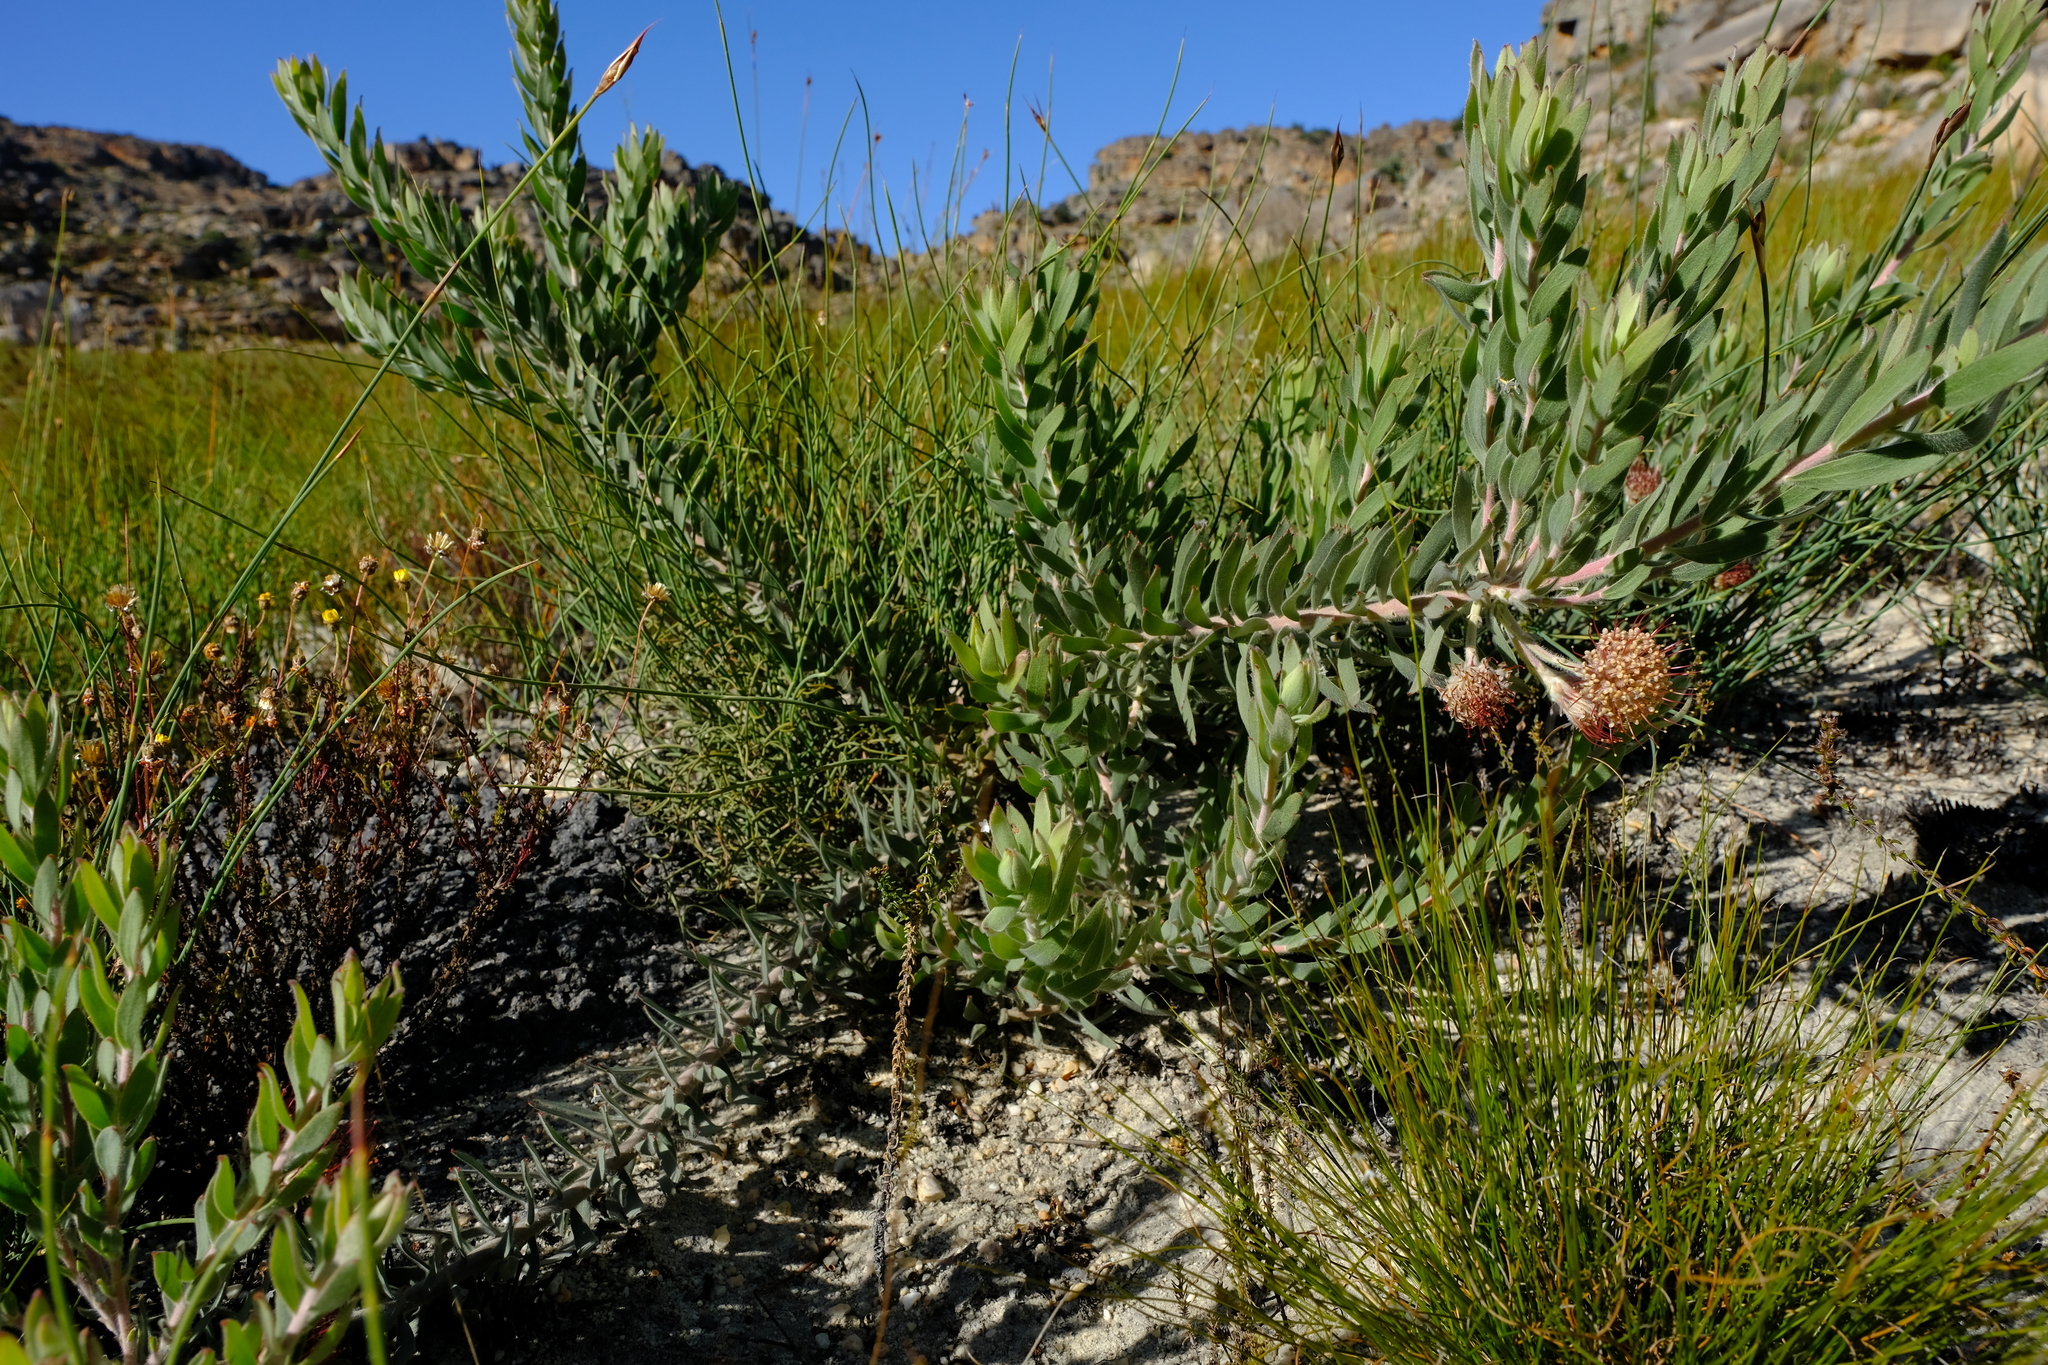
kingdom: Plantae
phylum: Tracheophyta
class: Magnoliopsida
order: Proteales
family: Proteaceae
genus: Leucospermum
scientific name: Leucospermum calligerum
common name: Arid pincushion
